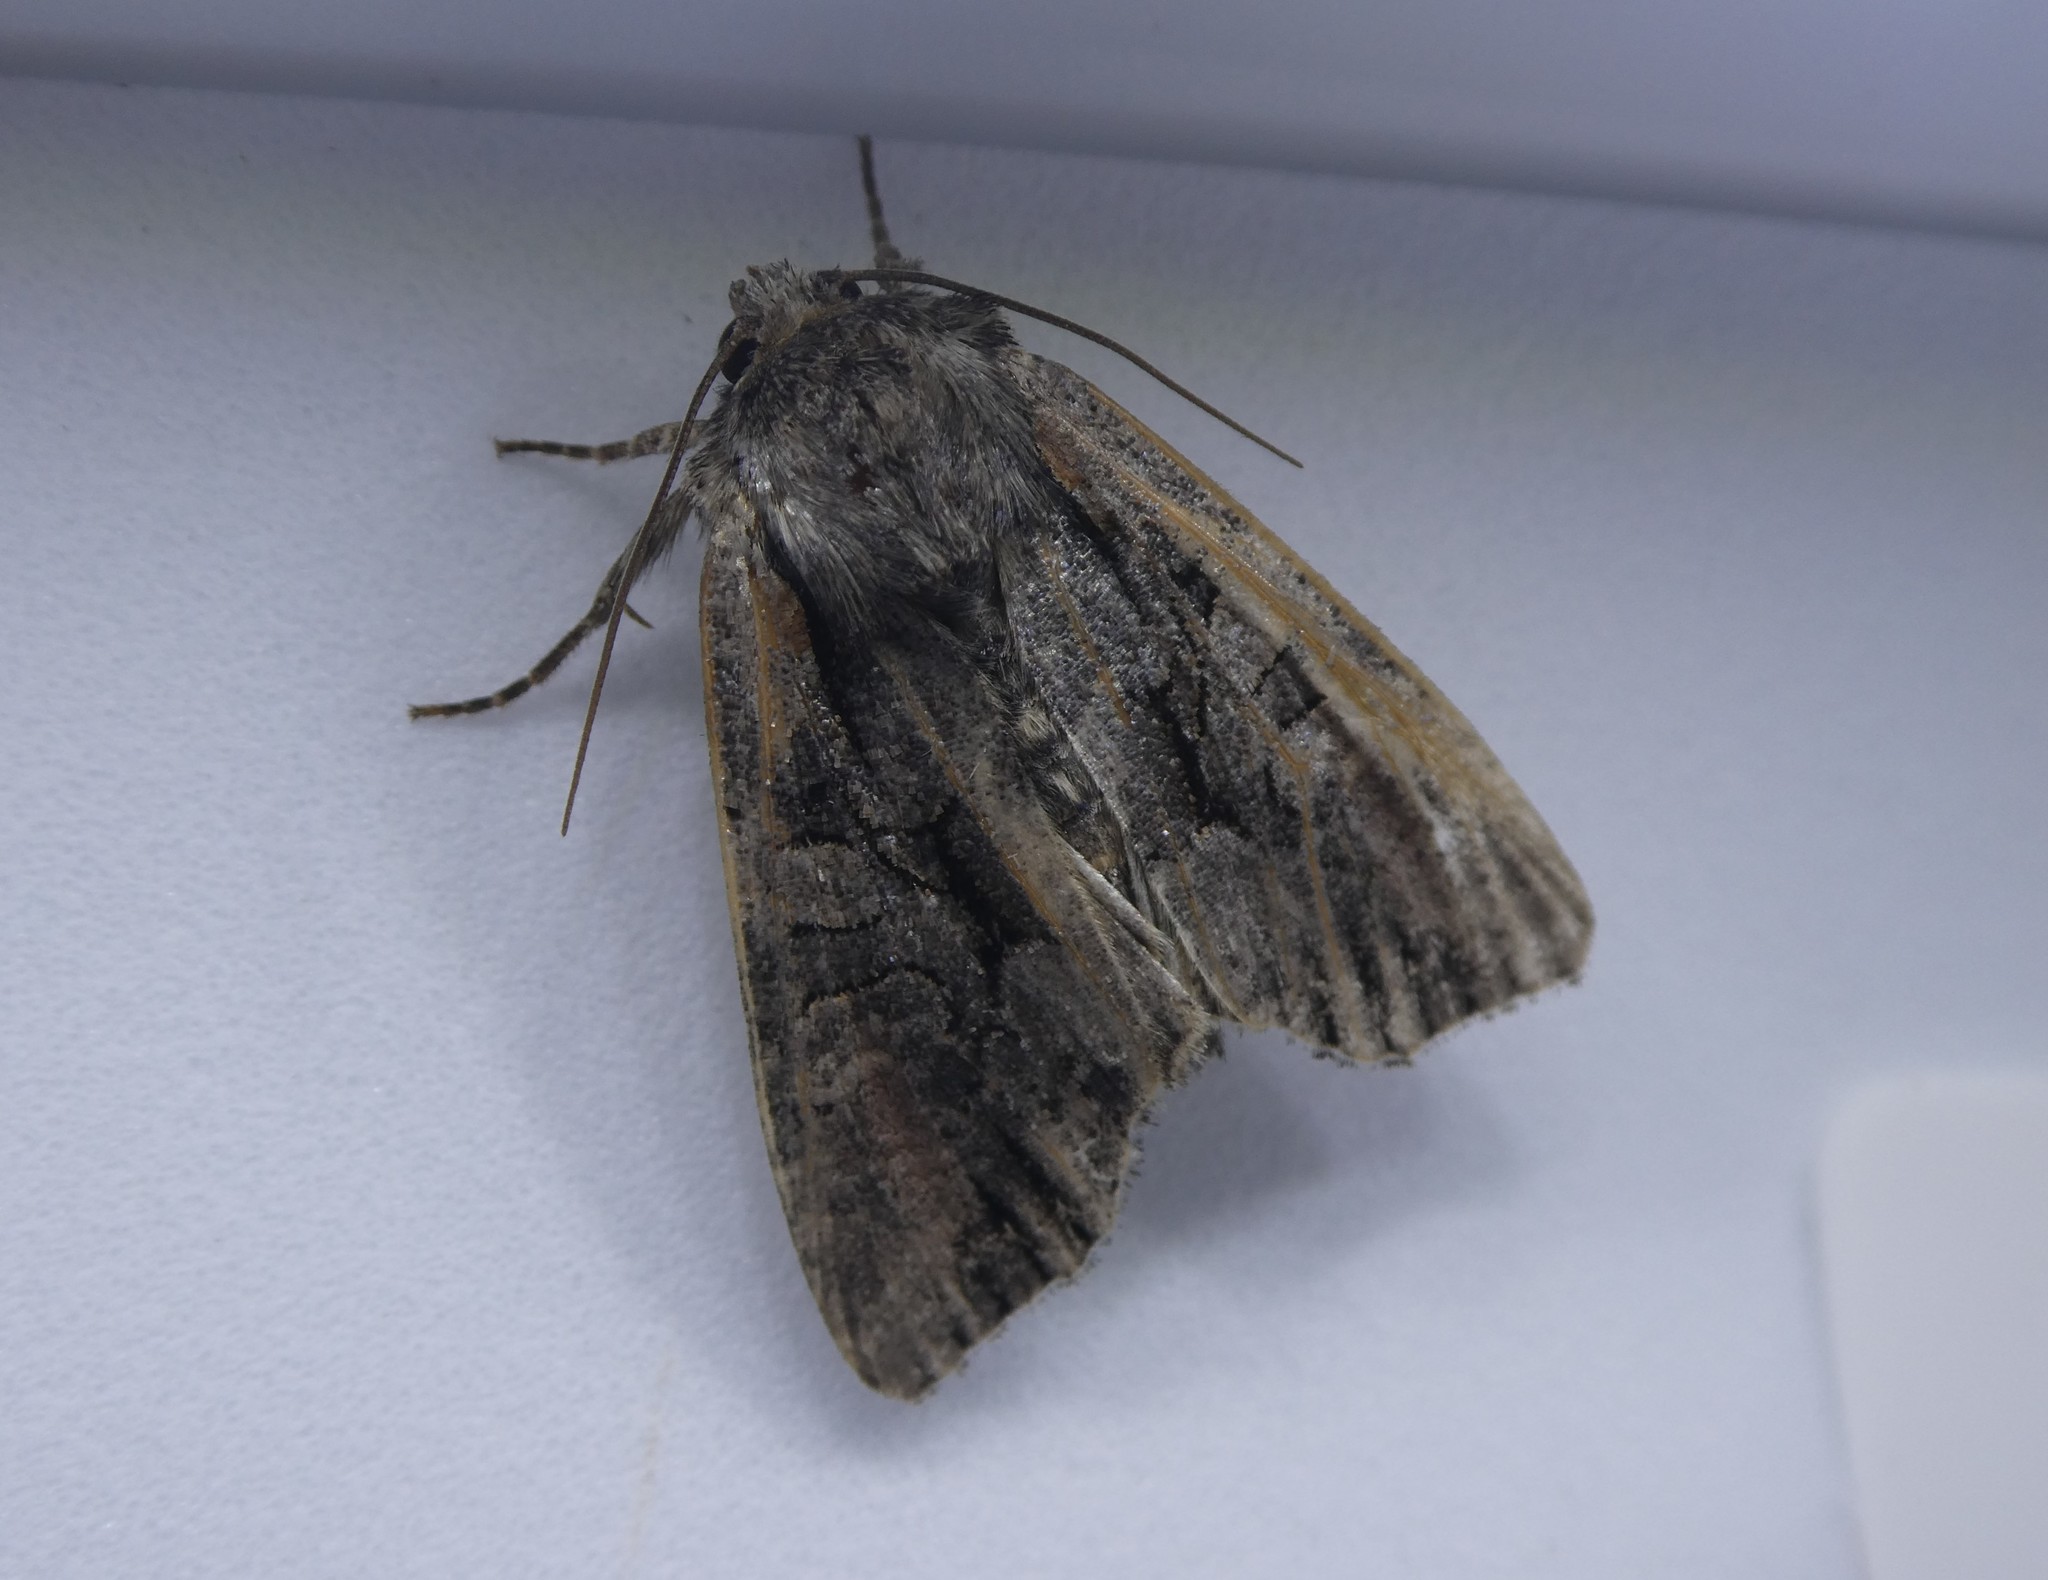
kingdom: Animalia
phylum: Arthropoda
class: Insecta
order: Lepidoptera
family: Noctuidae
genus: Lacanobia
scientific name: Lacanobia subjuncta
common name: Speckled cutworm moth
